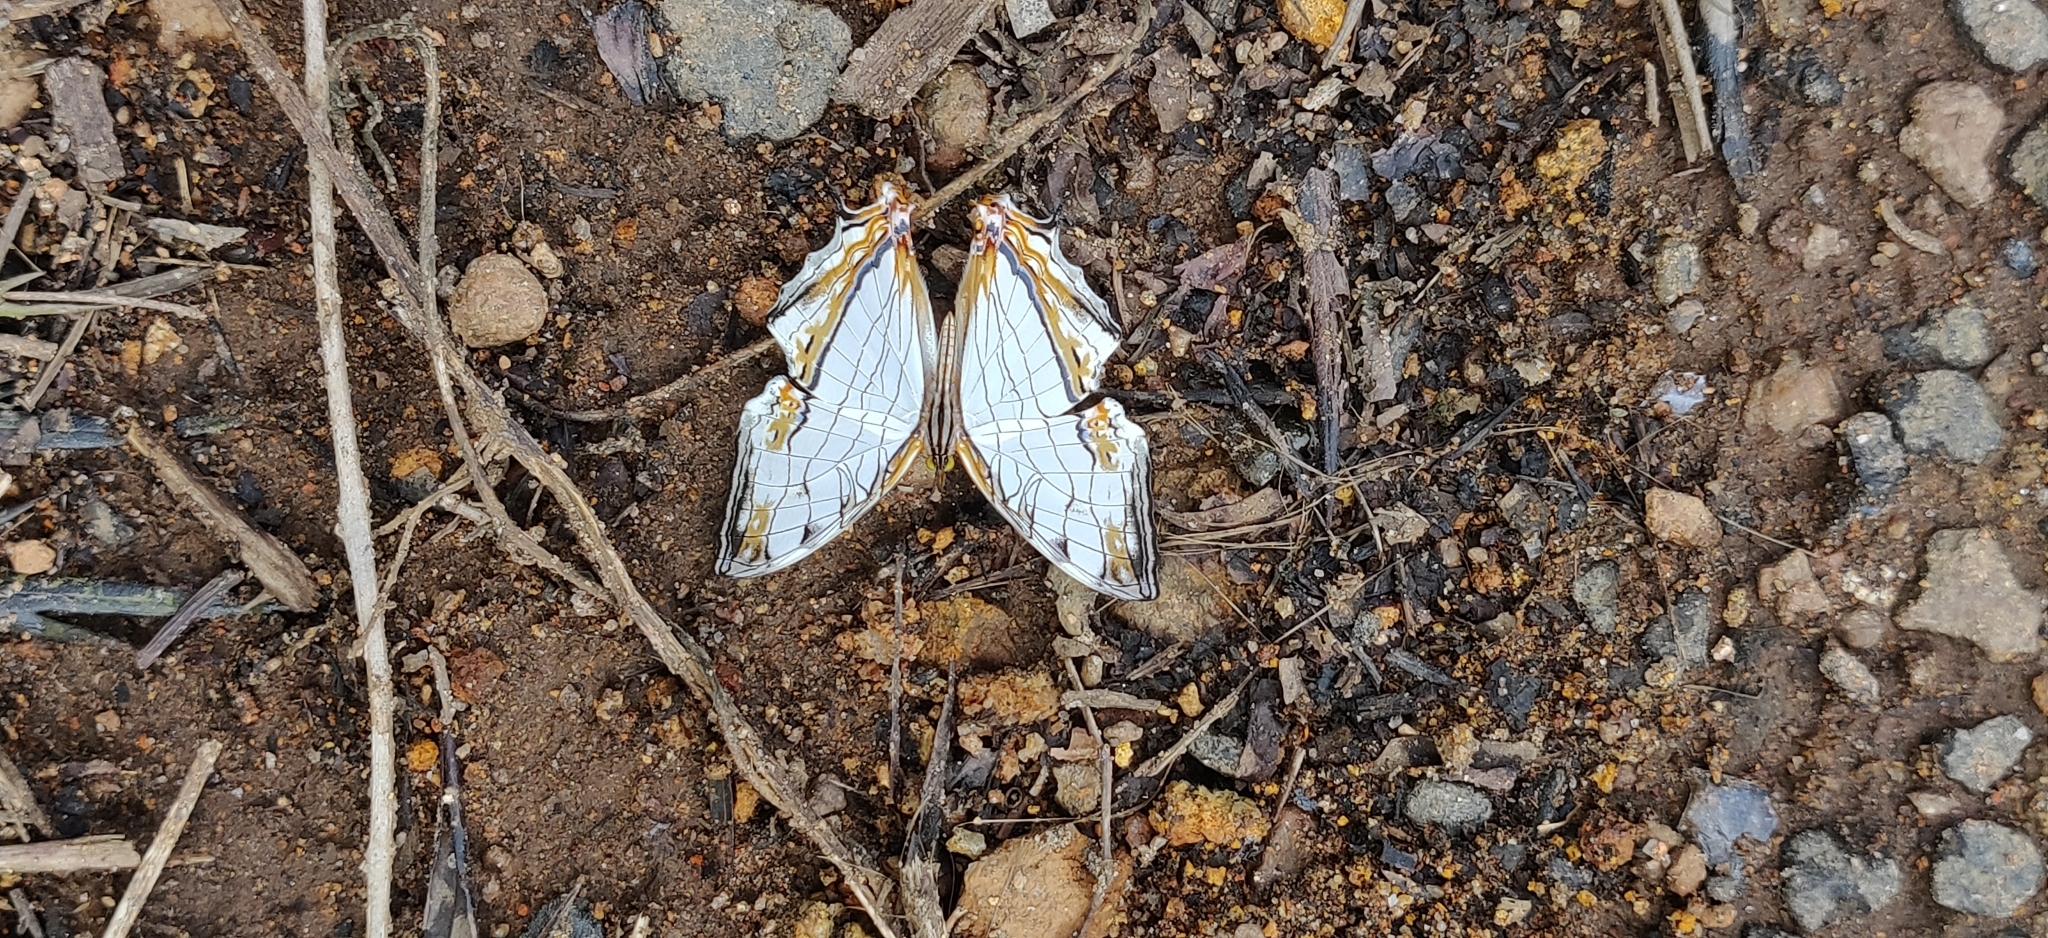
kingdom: Animalia
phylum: Arthropoda
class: Insecta
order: Lepidoptera
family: Nymphalidae
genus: Cyrestis
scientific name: Cyrestis thyodamas
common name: Common mapwing
